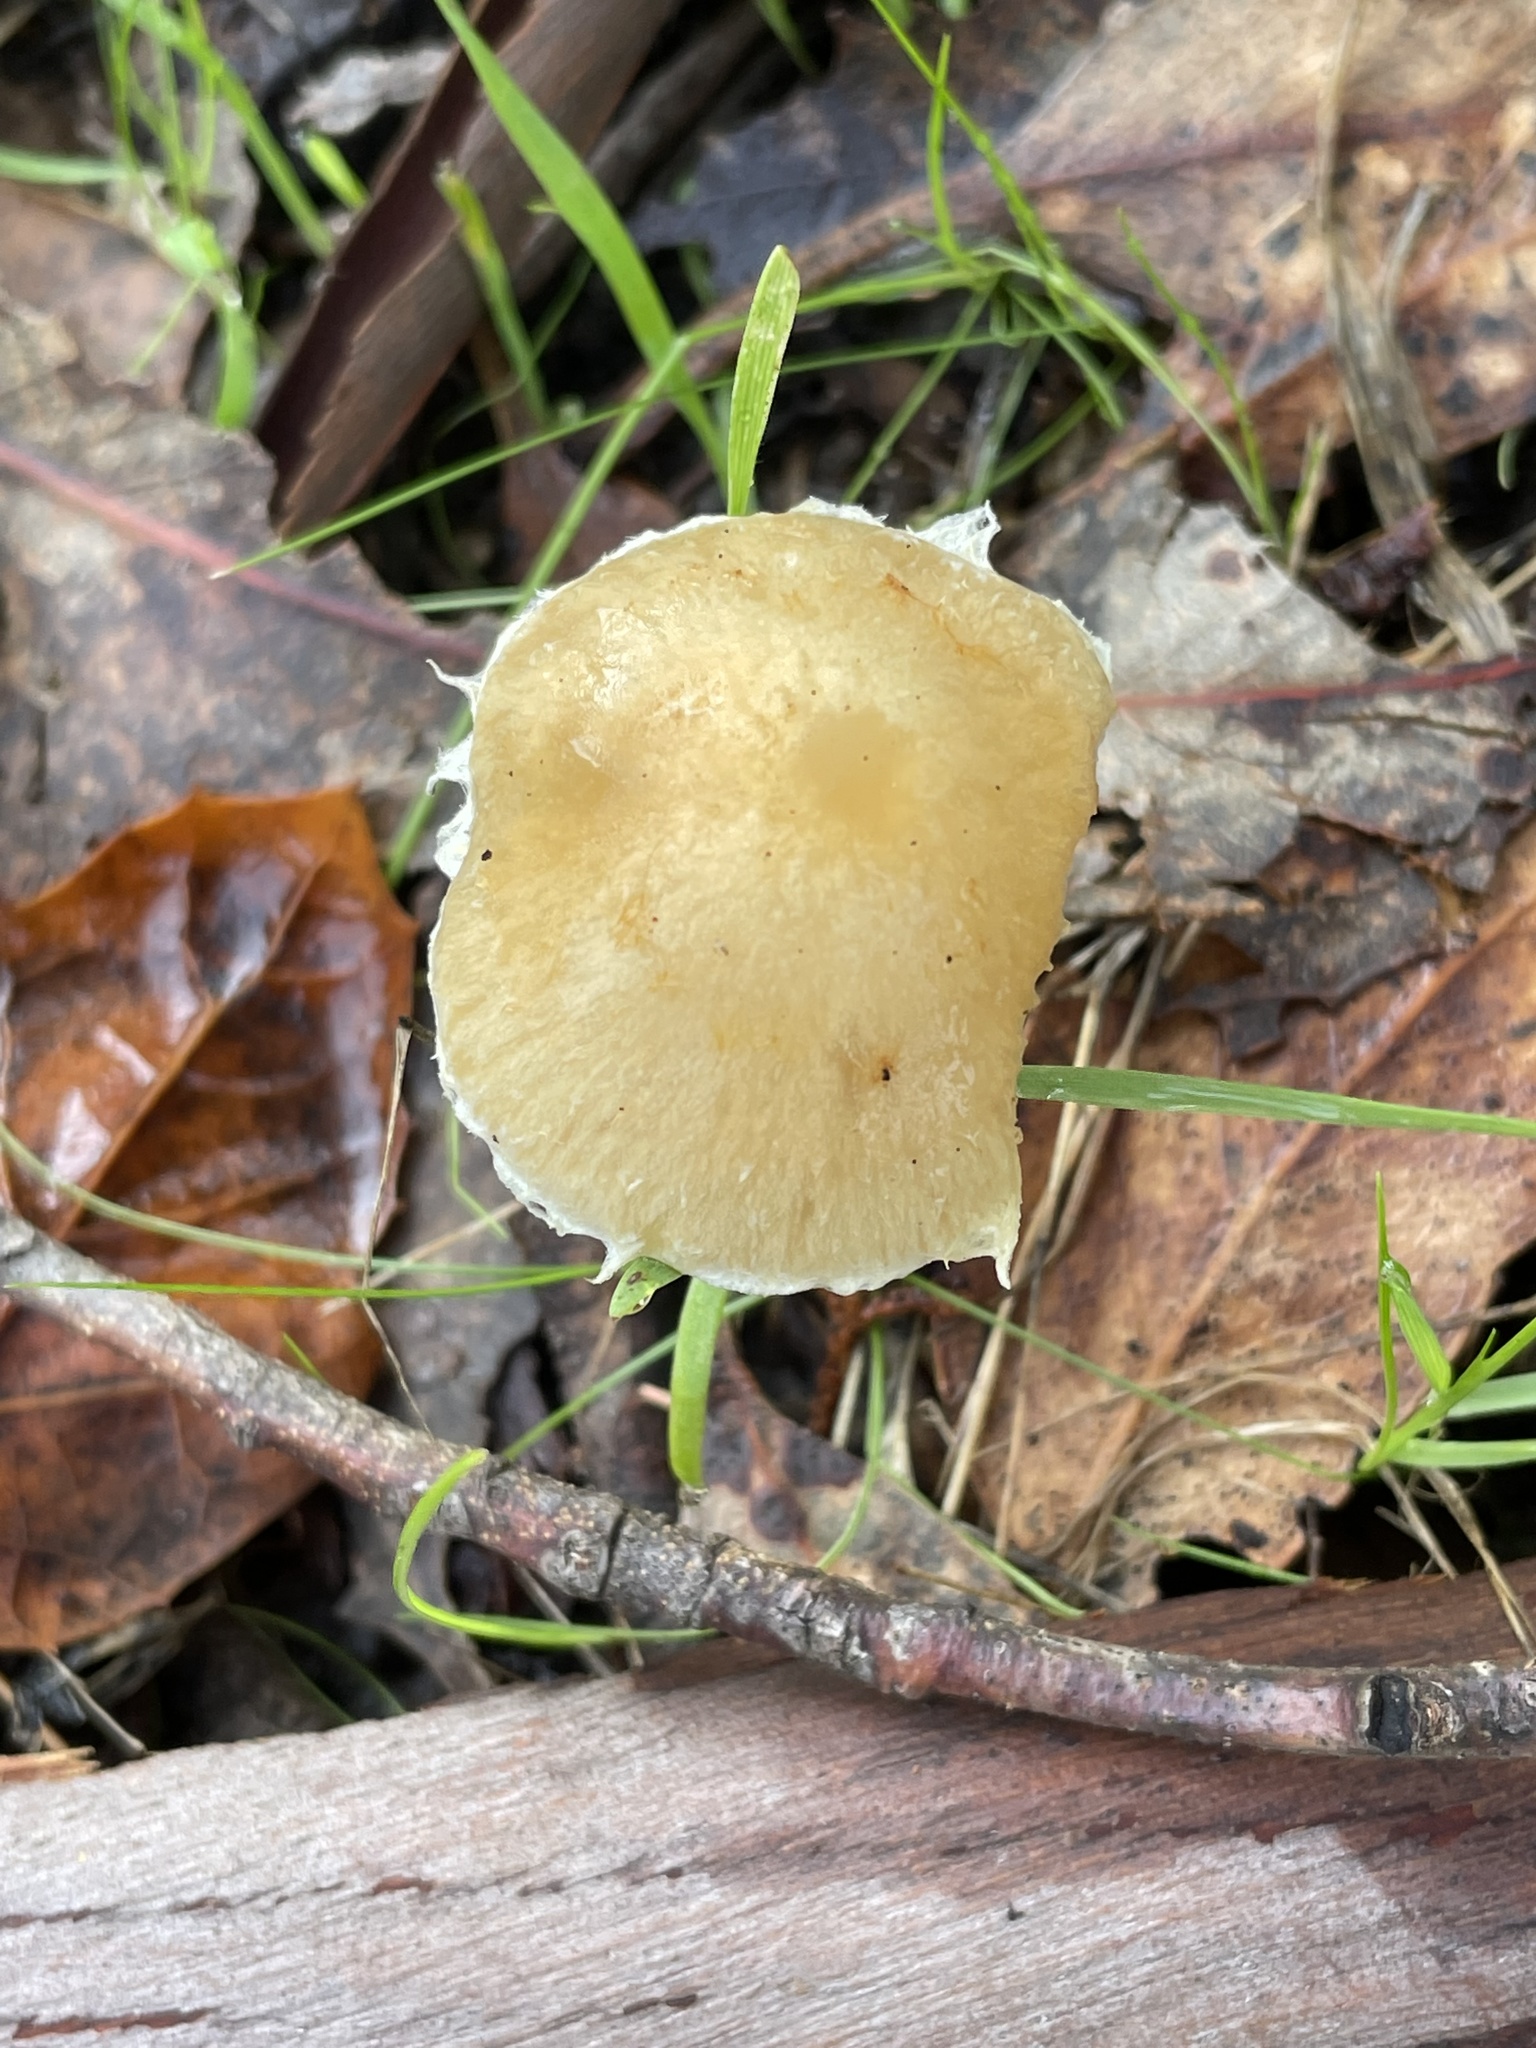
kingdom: Fungi
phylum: Basidiomycota
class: Agaricomycetes
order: Agaricales
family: Strophariaceae
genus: Leratiomyces
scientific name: Leratiomyces percevalii
